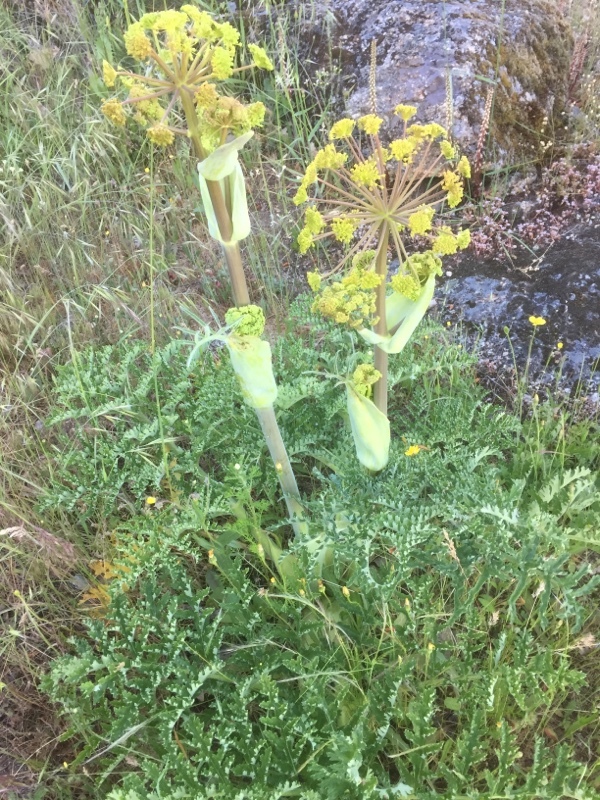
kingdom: Plantae
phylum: Tracheophyta
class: Magnoliopsida
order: Apiales
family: Apiaceae
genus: Thapsia
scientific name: Thapsia villosa
